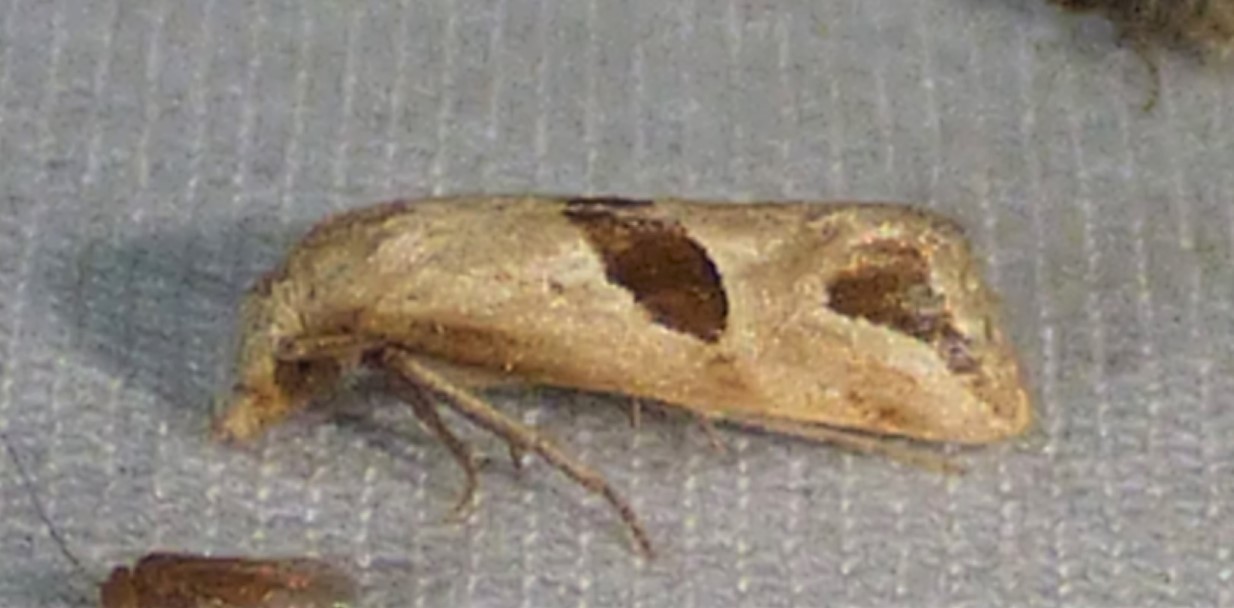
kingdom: Animalia
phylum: Arthropoda
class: Insecta
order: Lepidoptera
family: Tortricidae
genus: Eugnosta
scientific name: Eugnosta sartana
